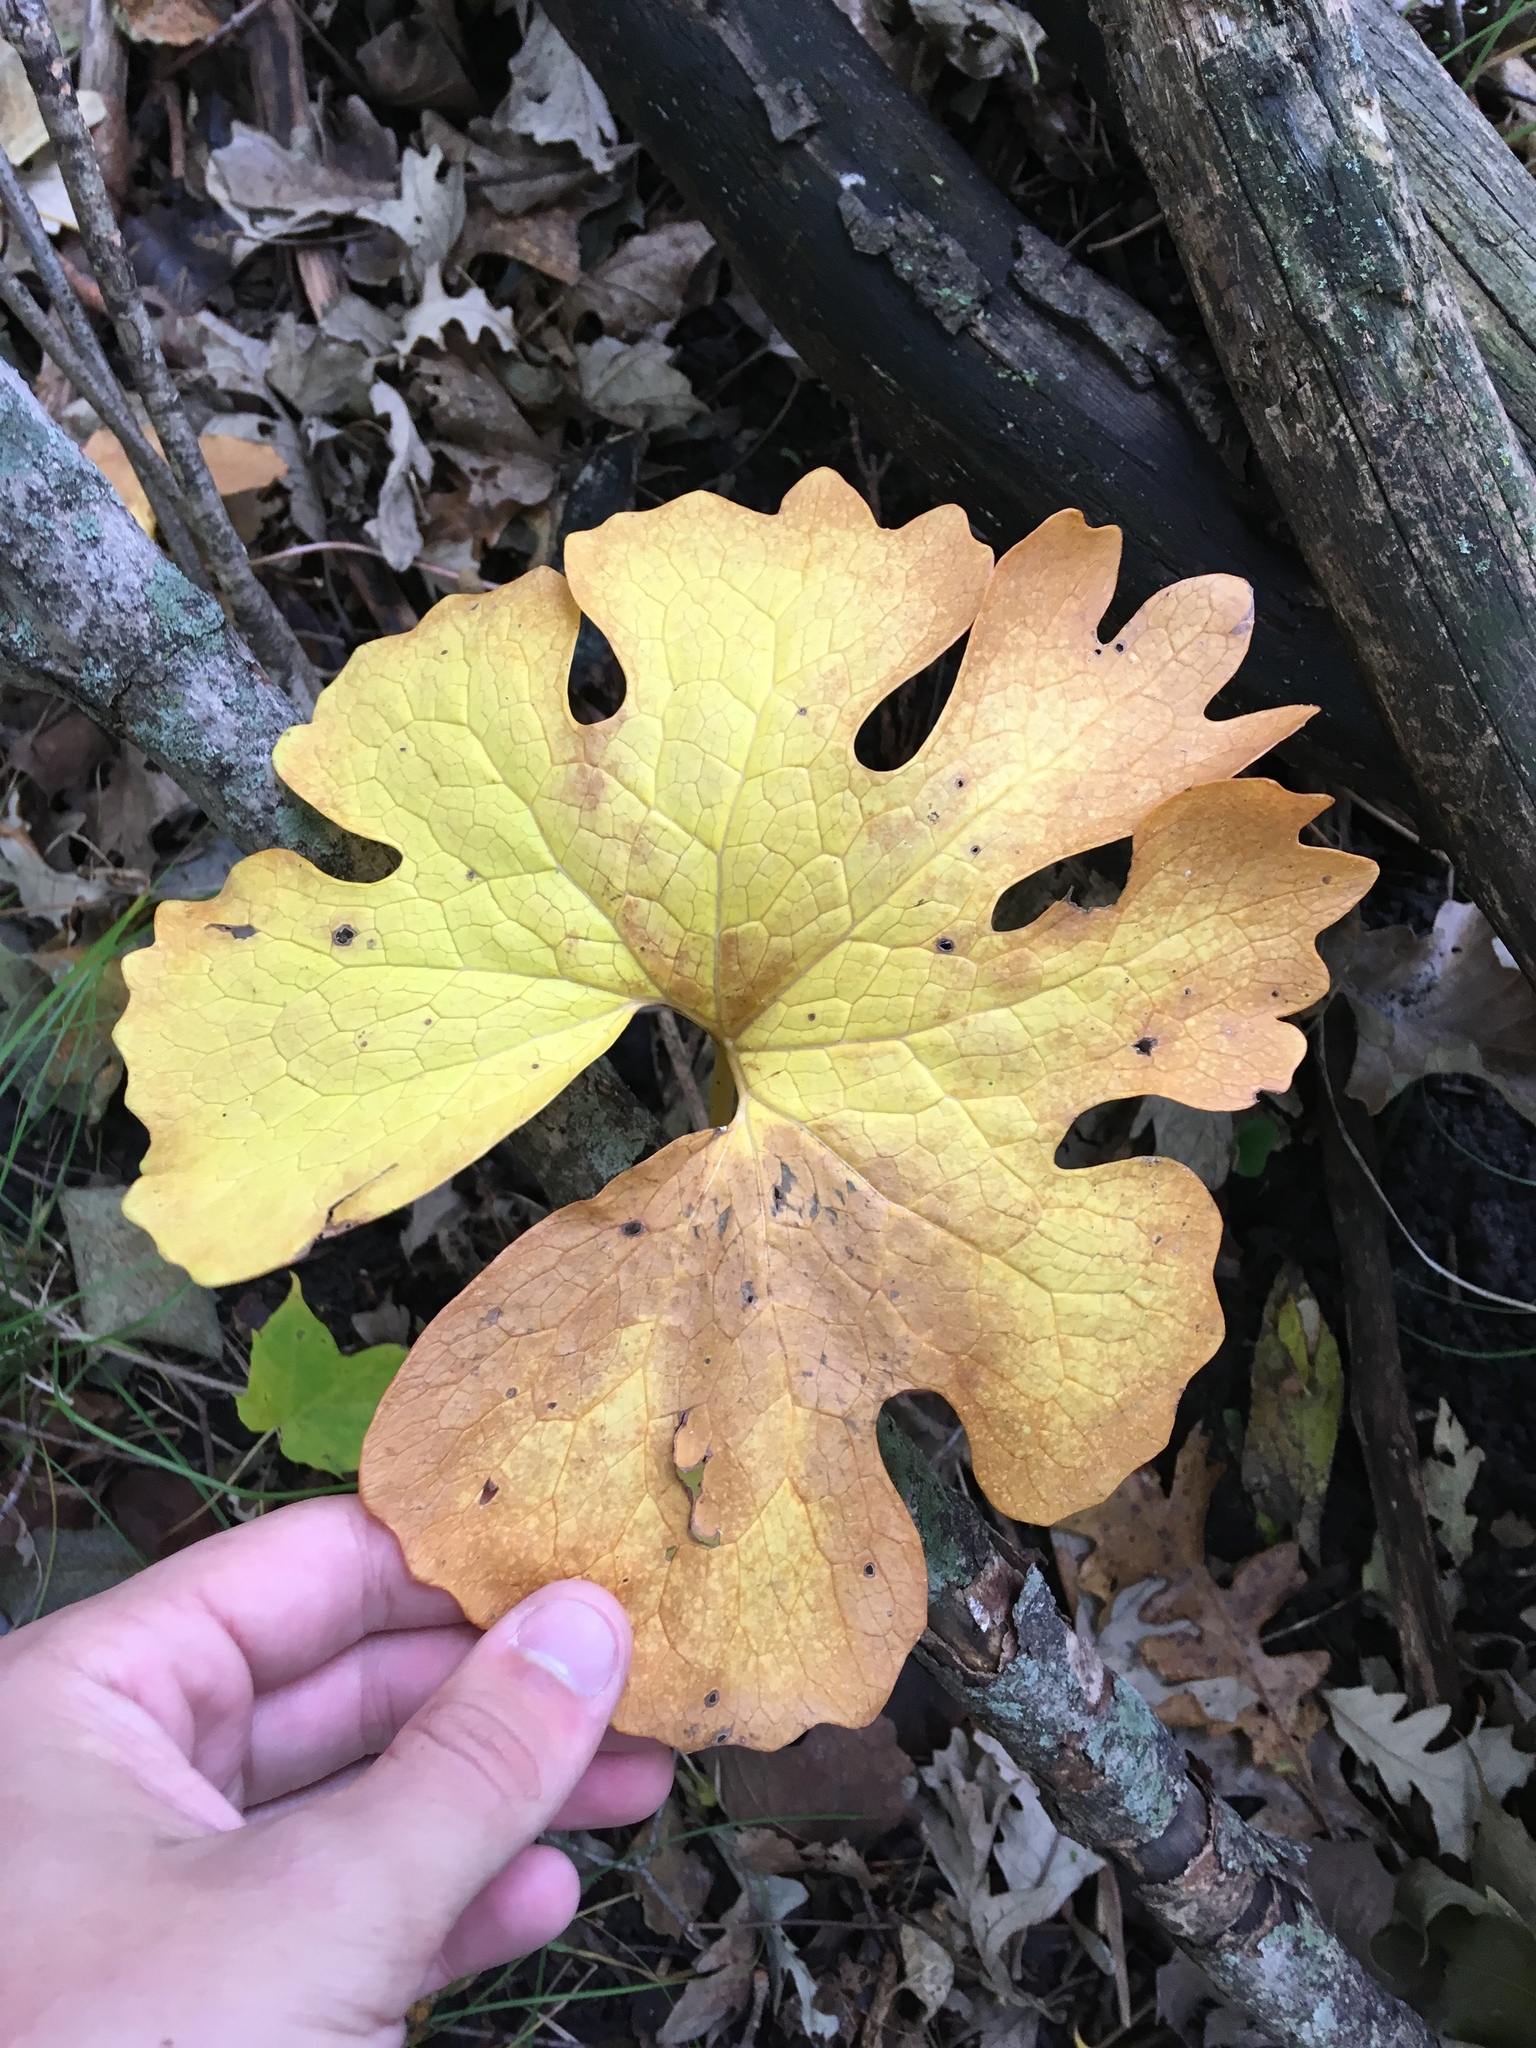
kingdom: Plantae
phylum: Tracheophyta
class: Magnoliopsida
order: Ranunculales
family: Papaveraceae
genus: Sanguinaria
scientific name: Sanguinaria canadensis
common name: Bloodroot
